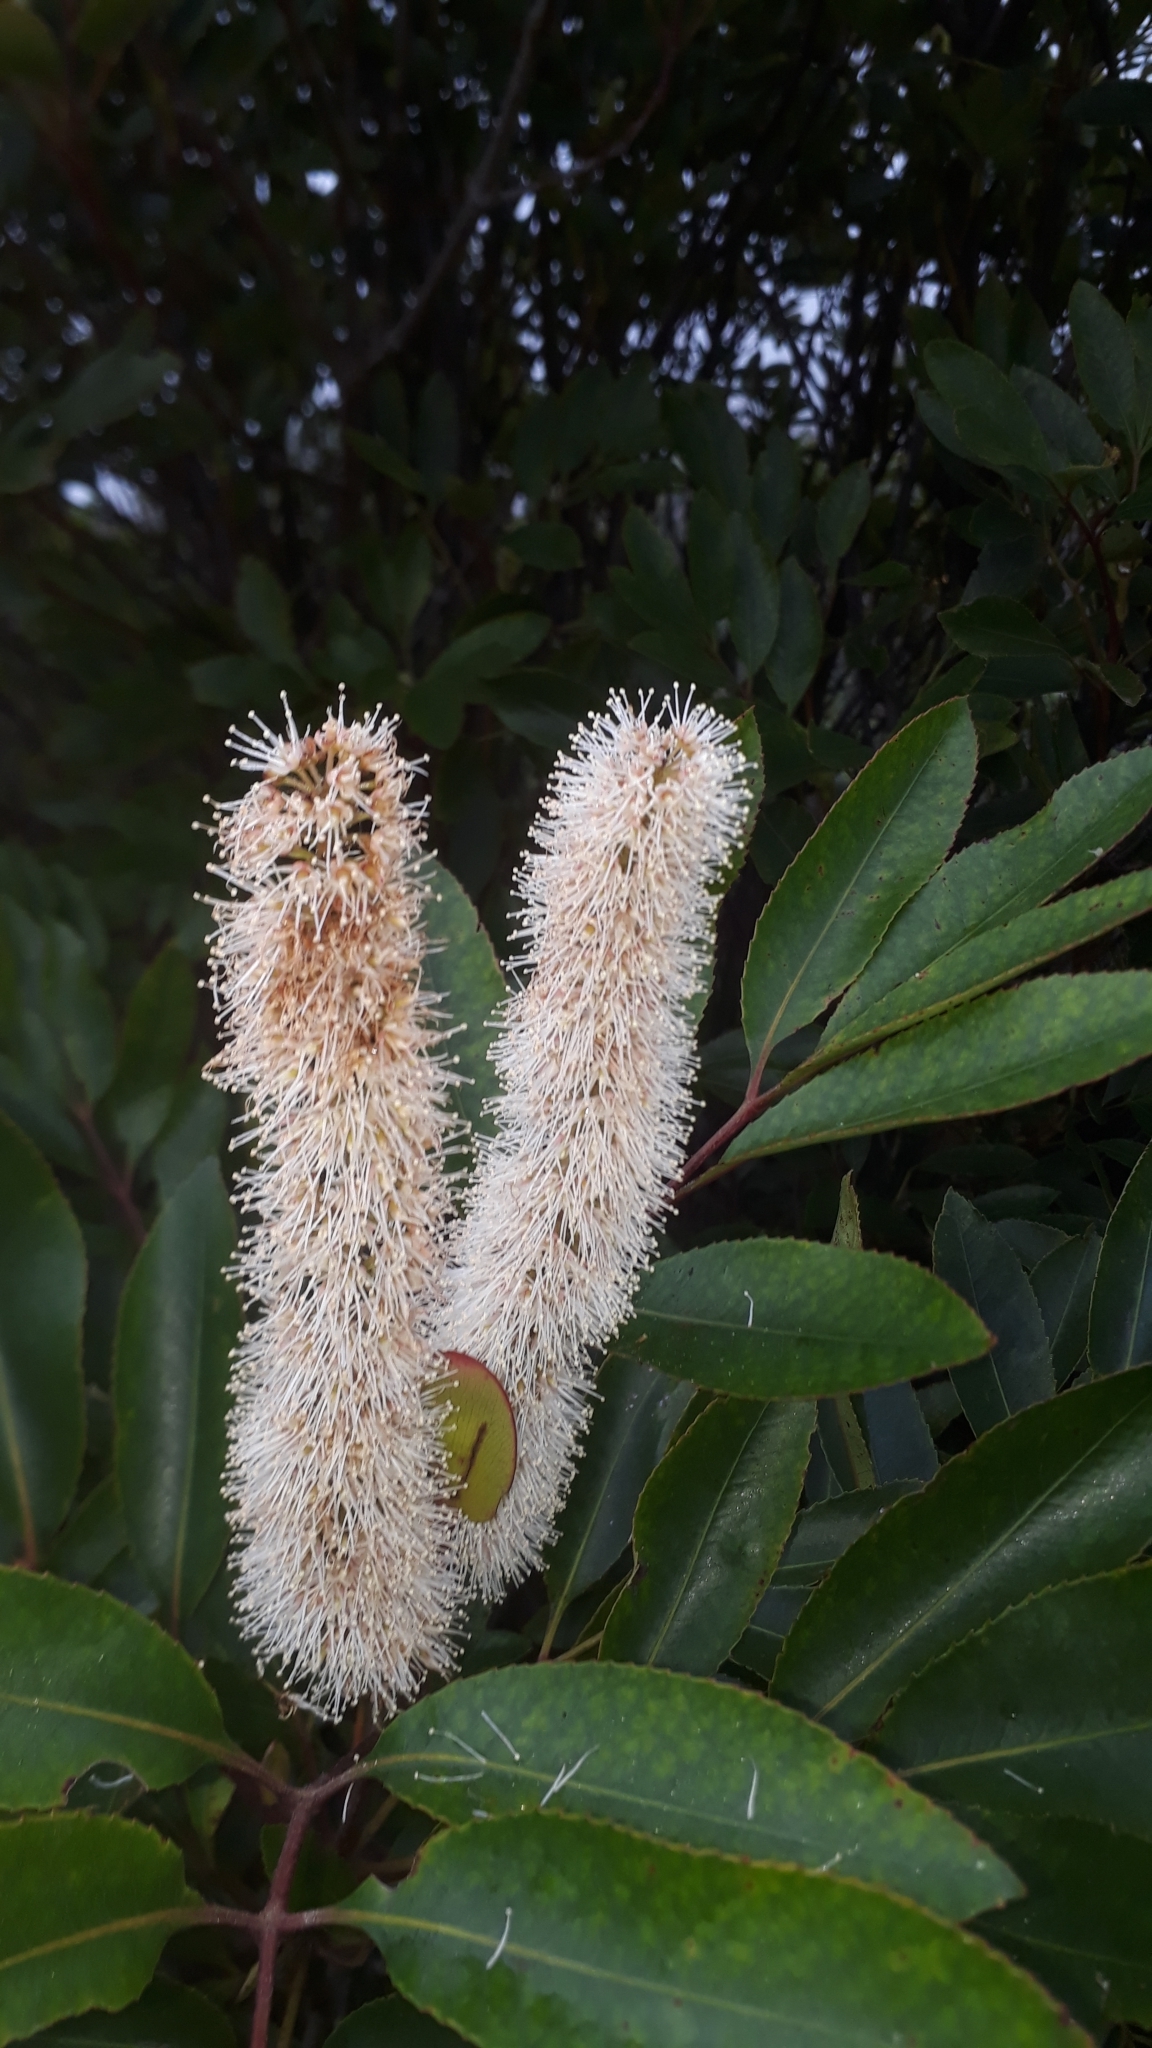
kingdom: Plantae
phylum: Tracheophyta
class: Magnoliopsida
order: Oxalidales
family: Cunoniaceae
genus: Cunonia
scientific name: Cunonia capensis
